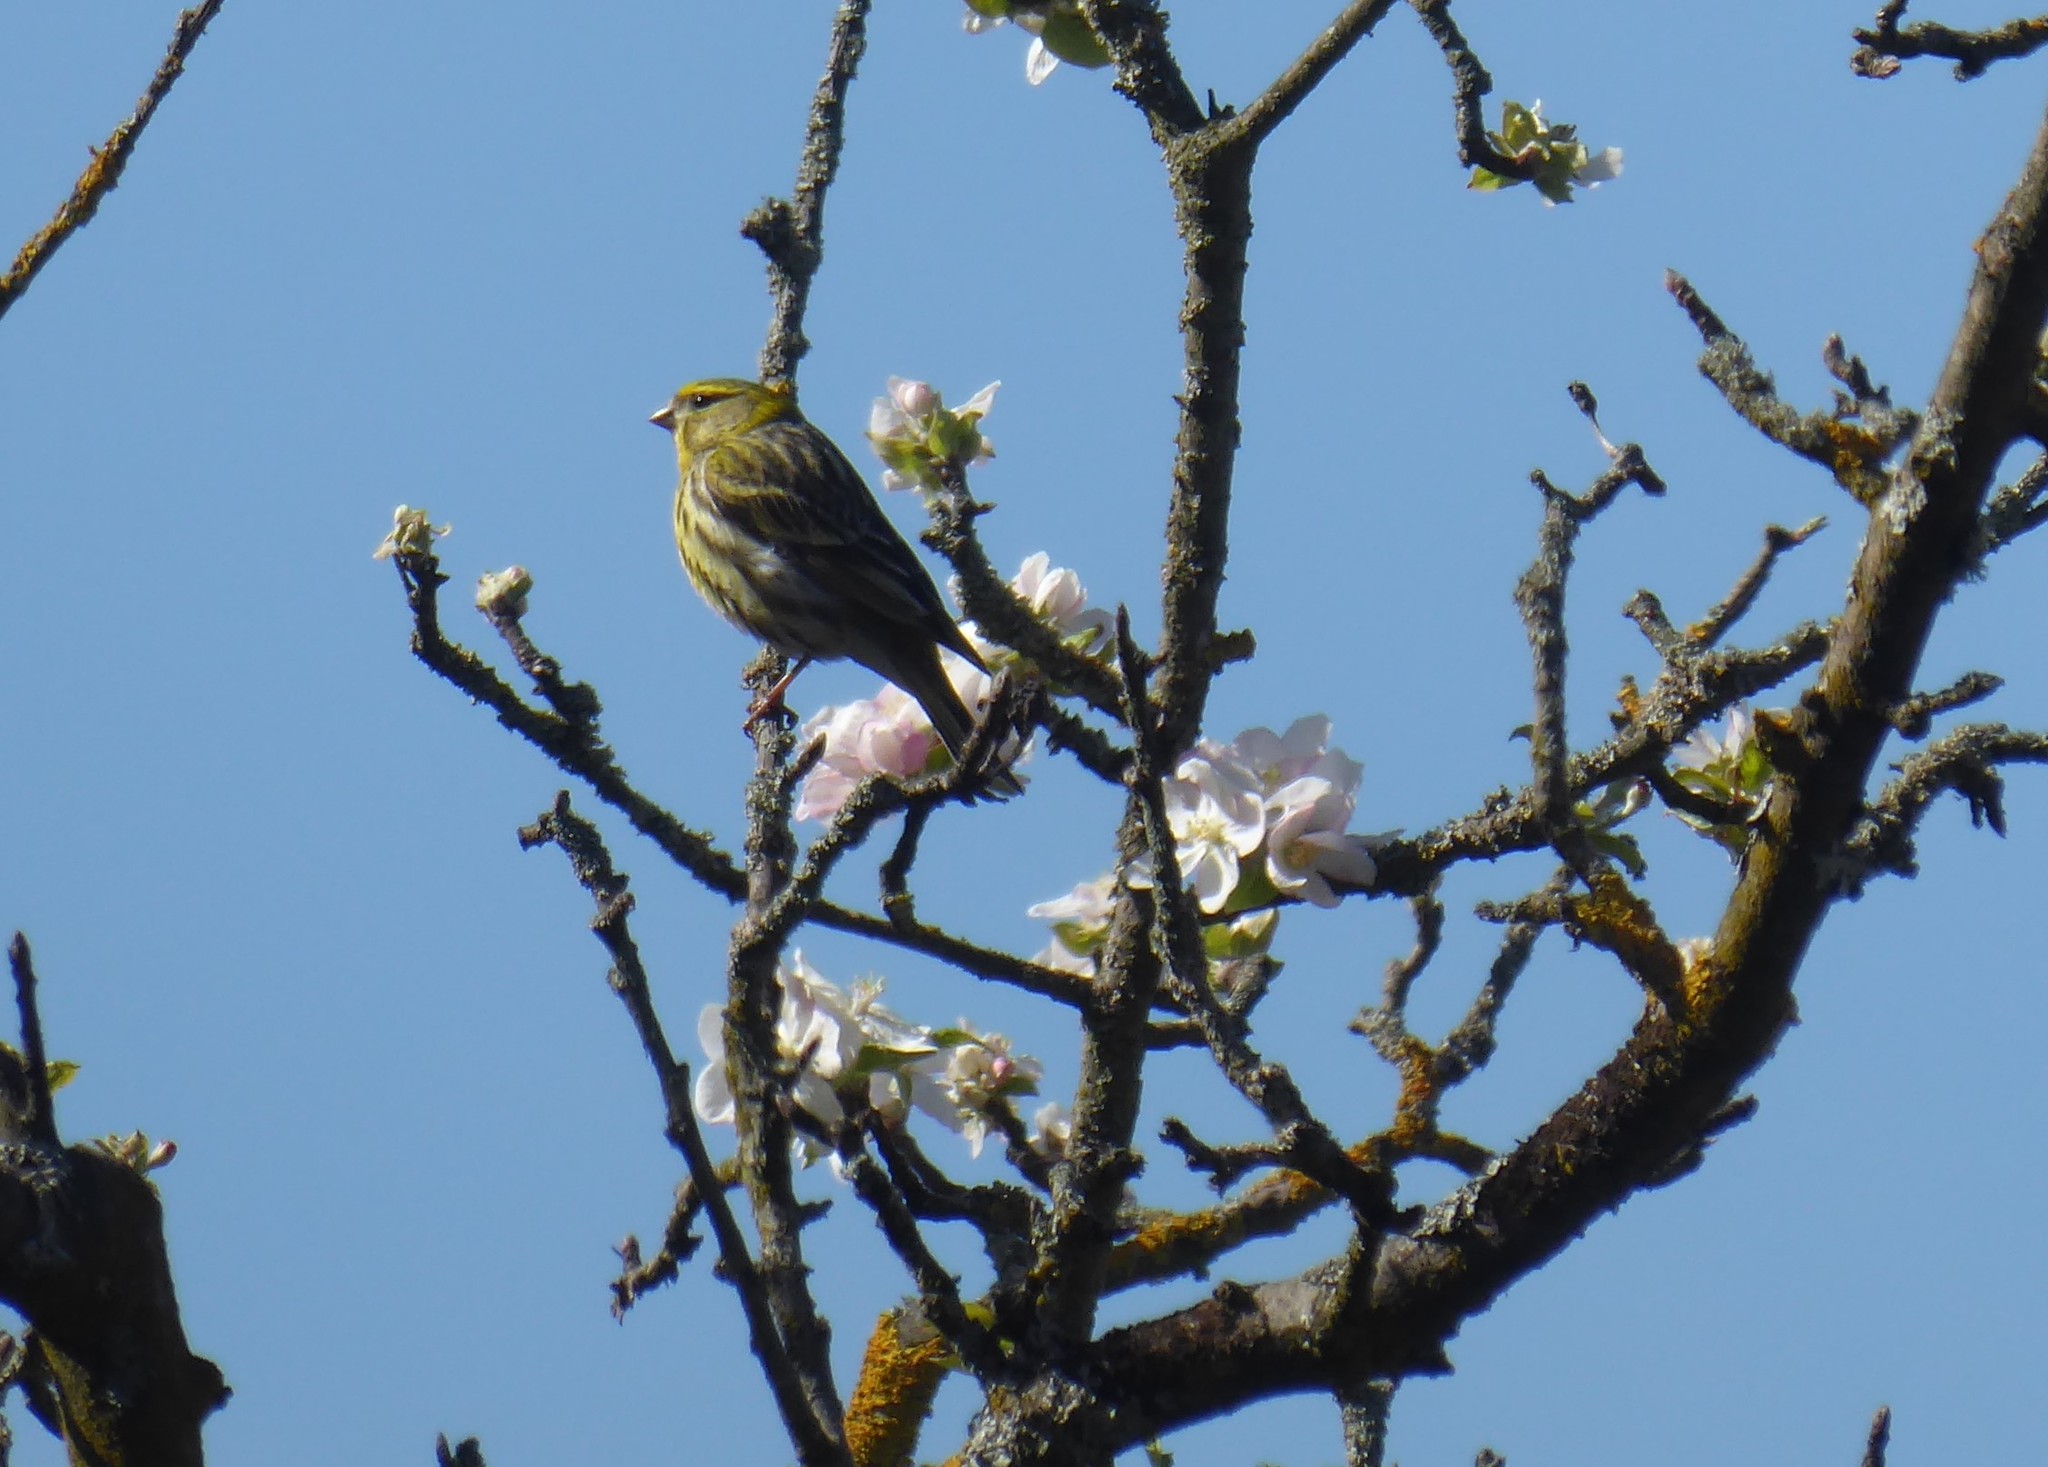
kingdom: Animalia
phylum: Chordata
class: Aves
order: Passeriformes
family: Fringillidae
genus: Serinus
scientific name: Serinus serinus
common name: European serin
